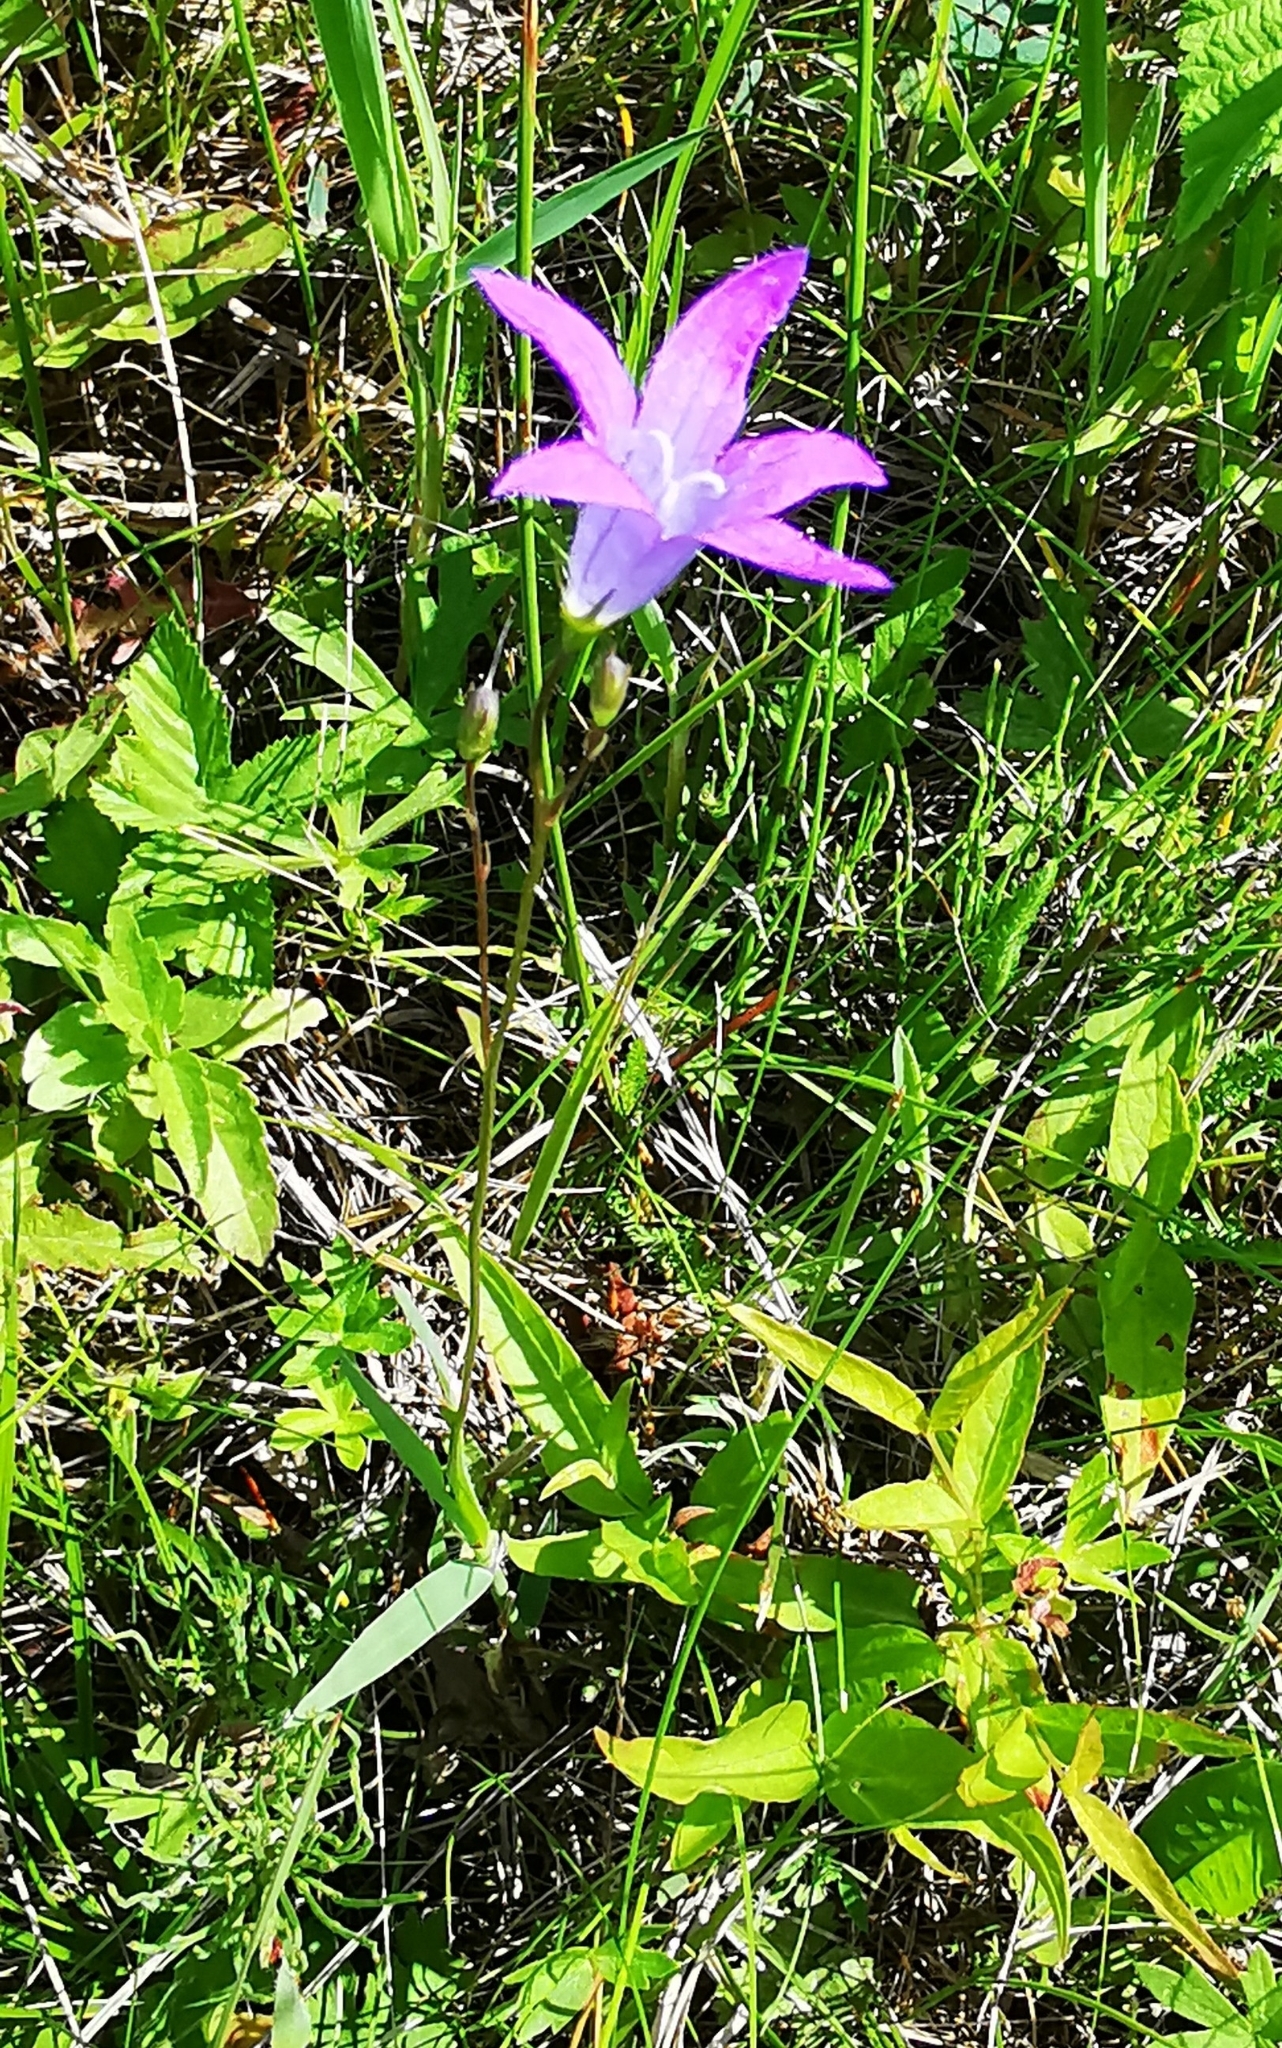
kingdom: Plantae
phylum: Tracheophyta
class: Magnoliopsida
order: Asterales
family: Campanulaceae
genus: Campanula
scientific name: Campanula patula
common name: Spreading bellflower
